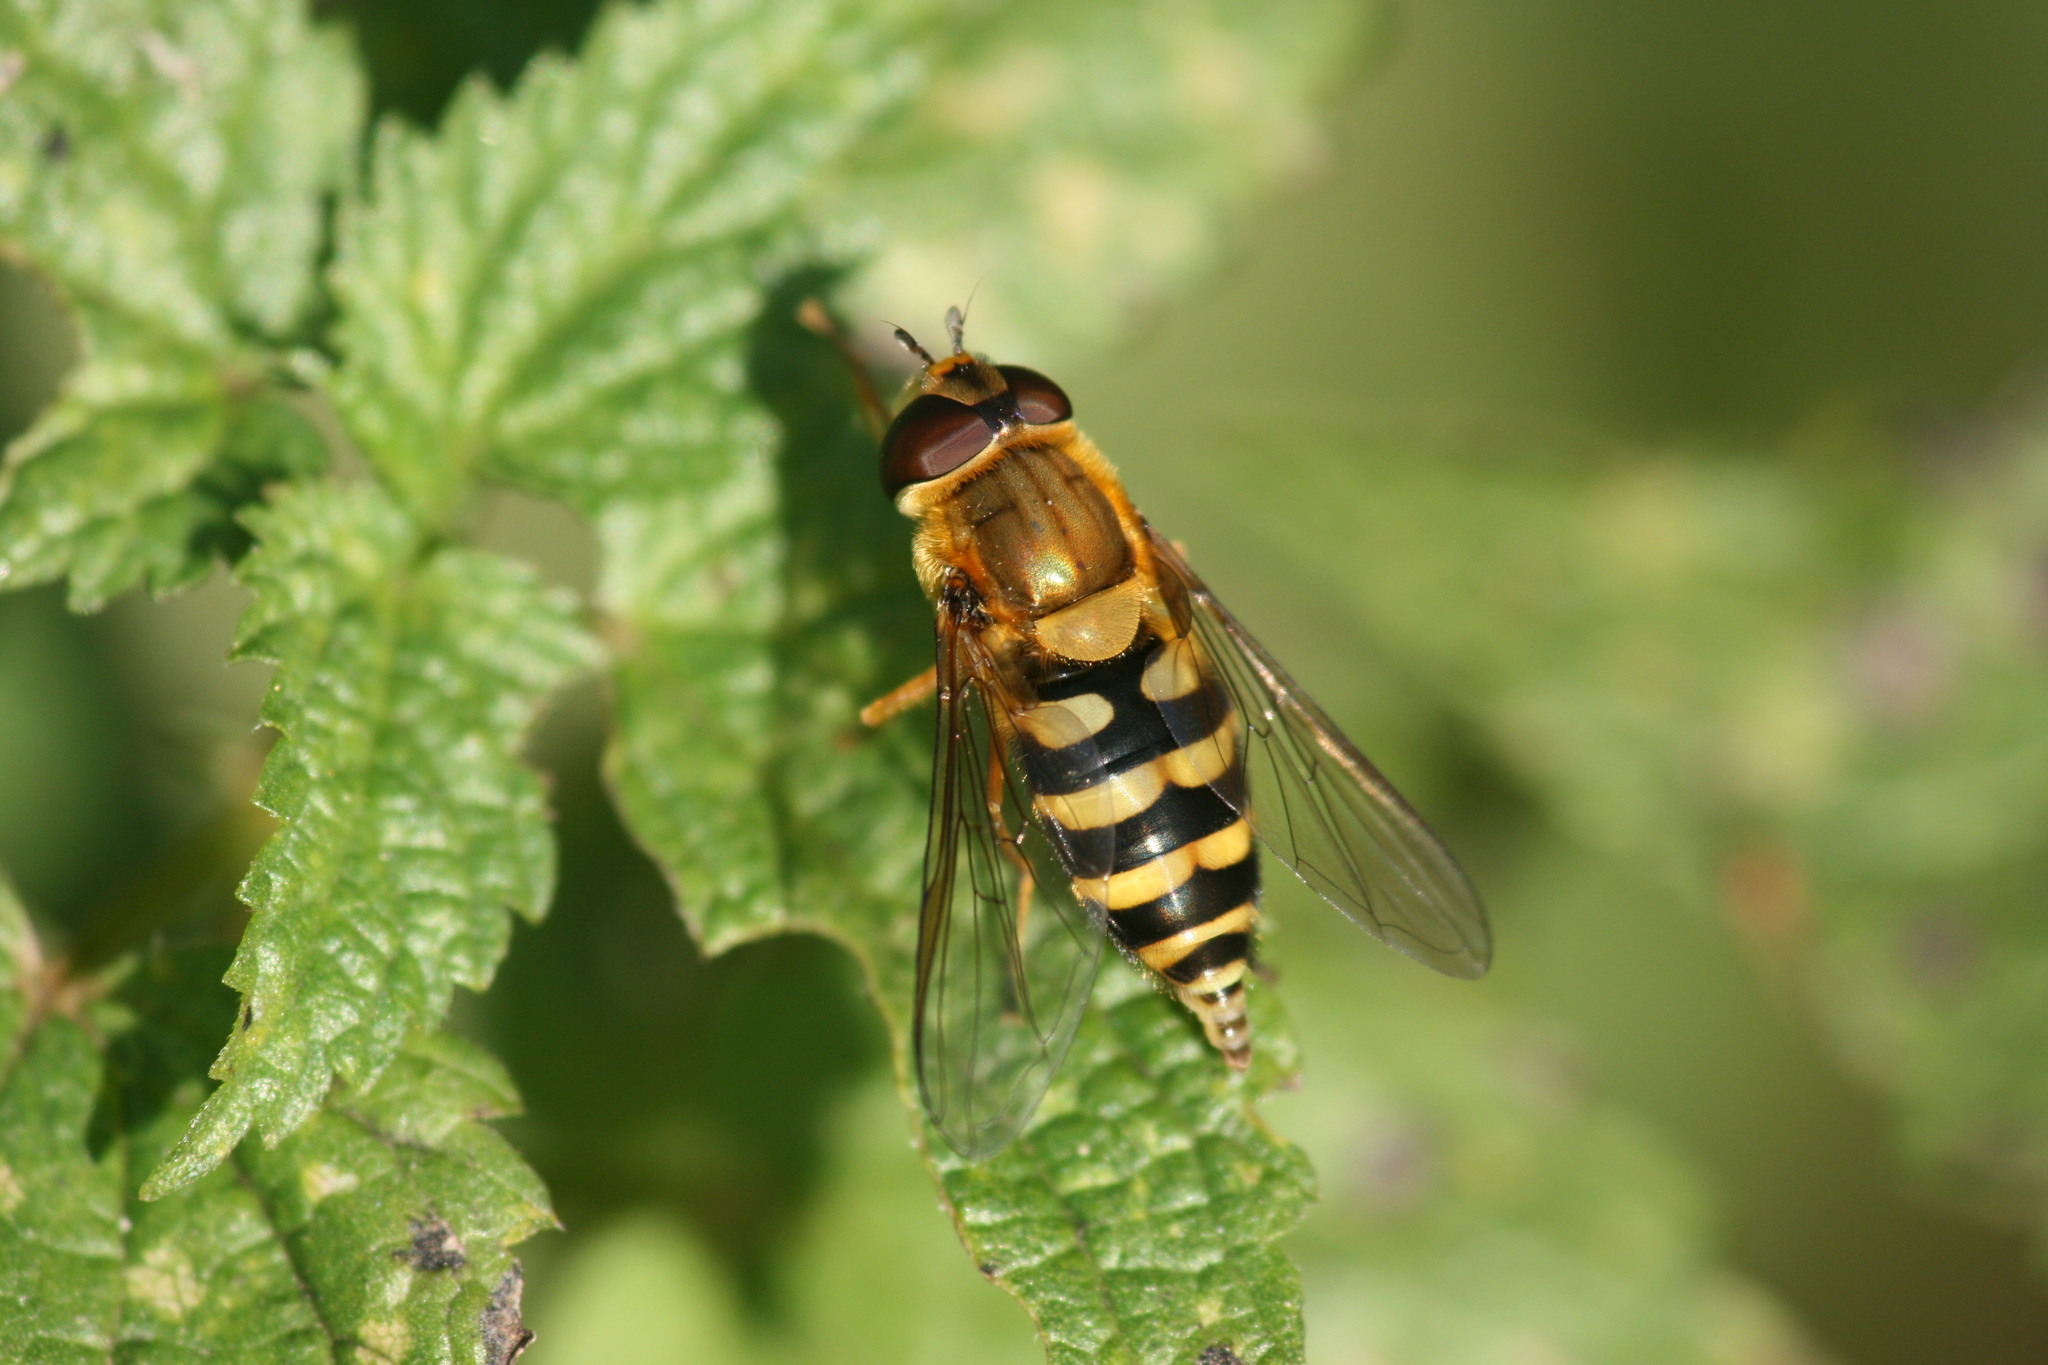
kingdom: Animalia
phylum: Arthropoda
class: Insecta
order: Diptera
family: Syrphidae
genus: Syrphus
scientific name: Syrphus
